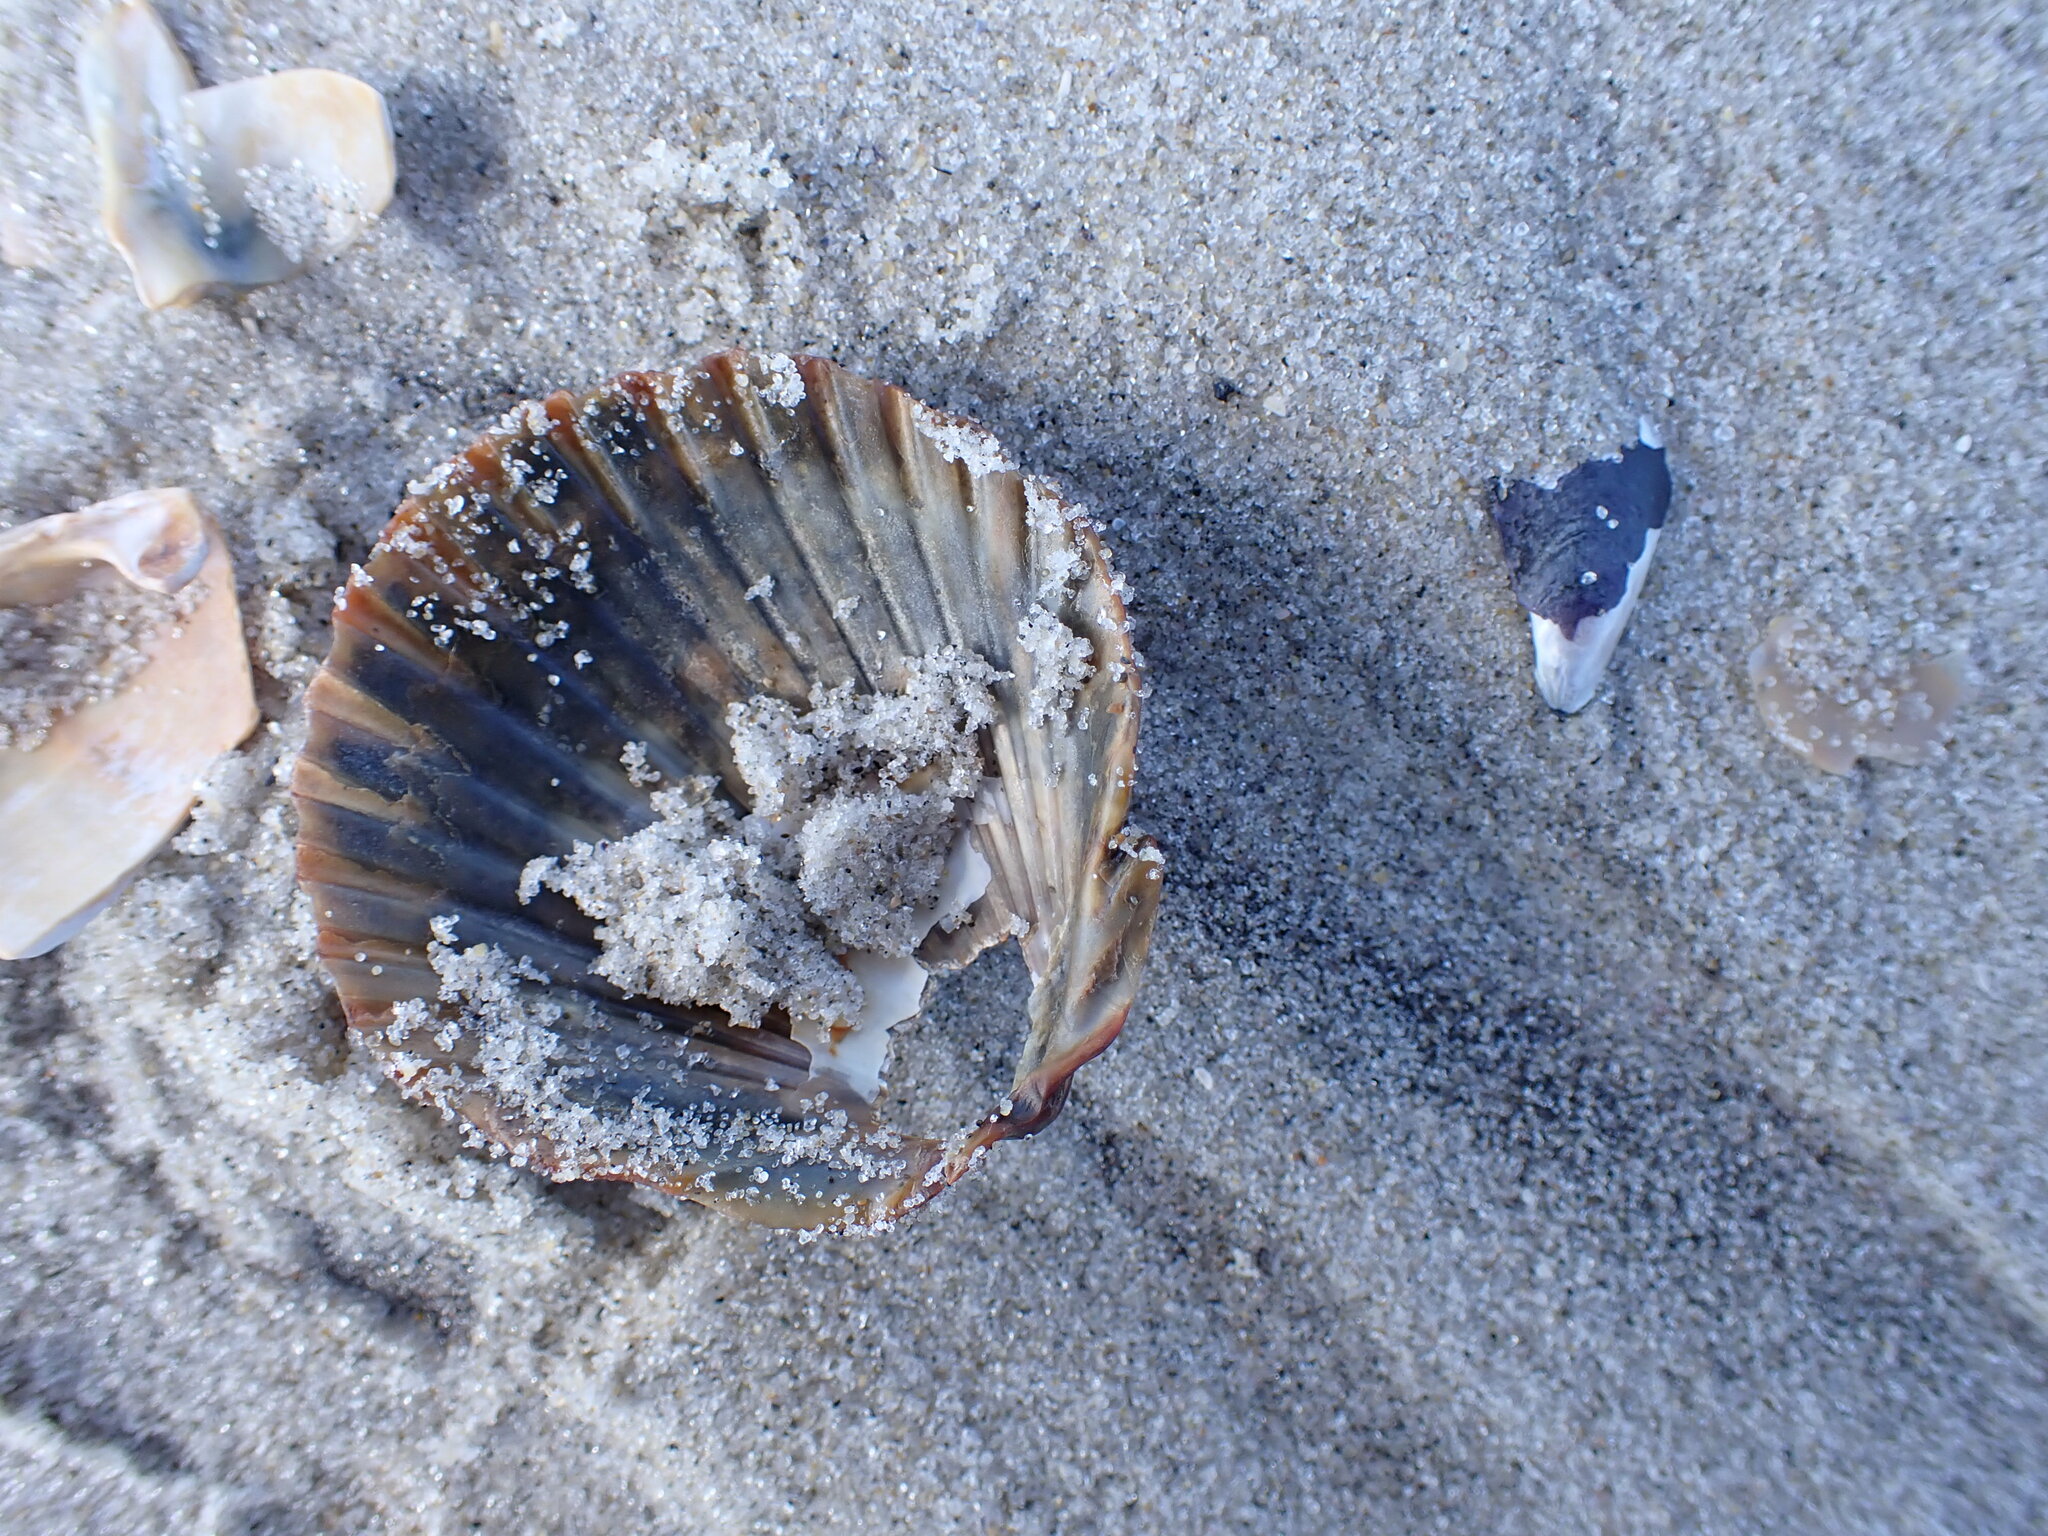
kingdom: Animalia
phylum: Mollusca
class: Bivalvia
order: Pectinida
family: Pectinidae
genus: Argopecten
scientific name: Argopecten irradians
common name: Atlantic bay scallop
